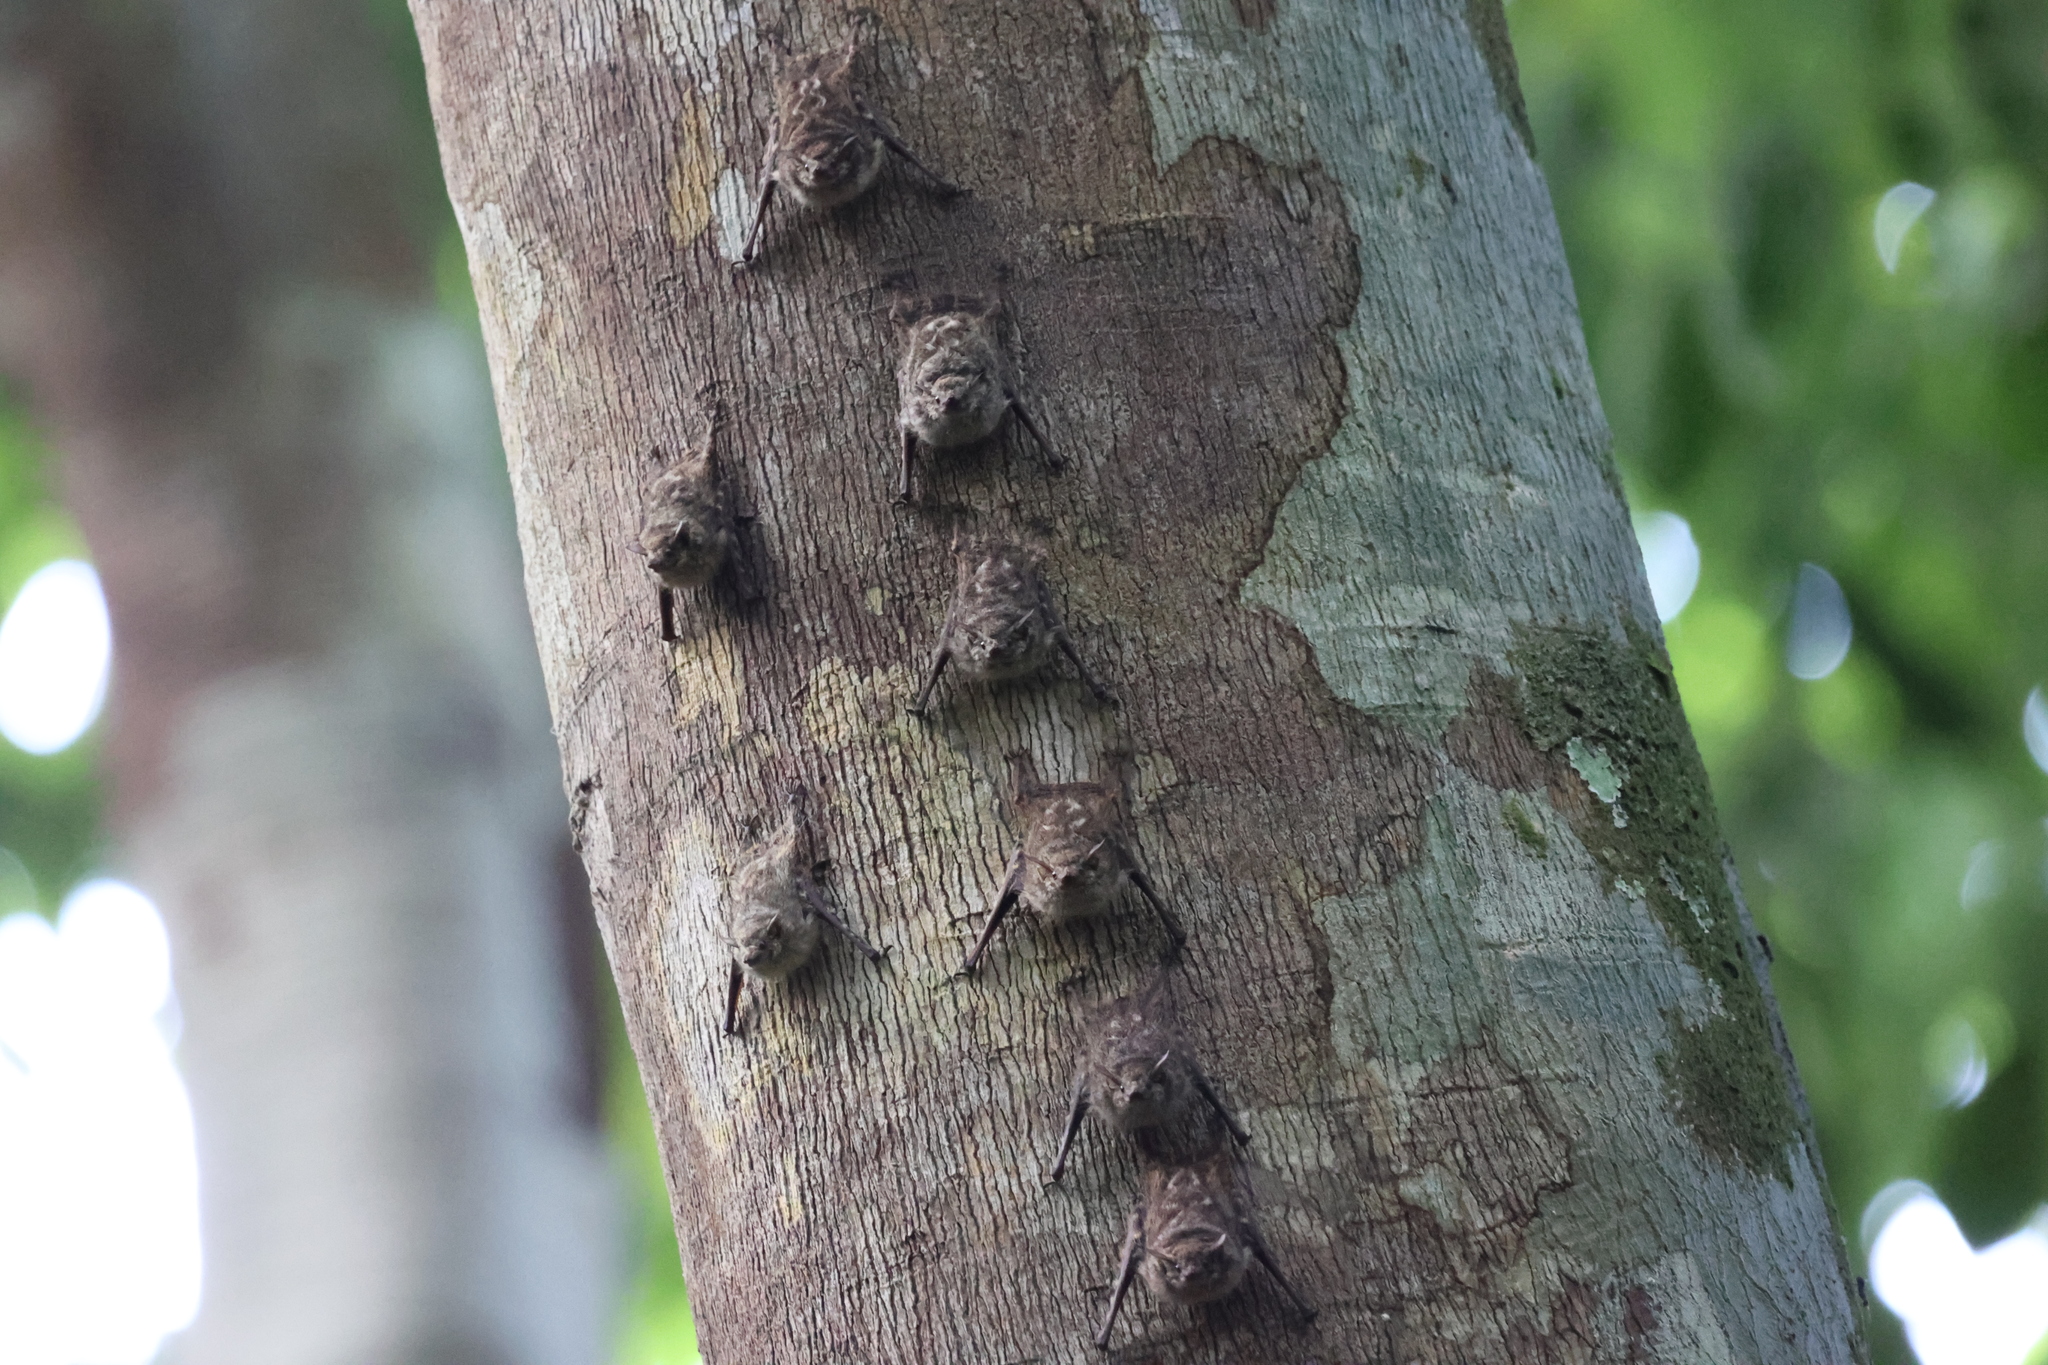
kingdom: Animalia
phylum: Chordata
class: Mammalia
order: Chiroptera
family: Emballonuridae
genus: Rhynchonycteris
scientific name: Rhynchonycteris naso
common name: Proboscis bat
